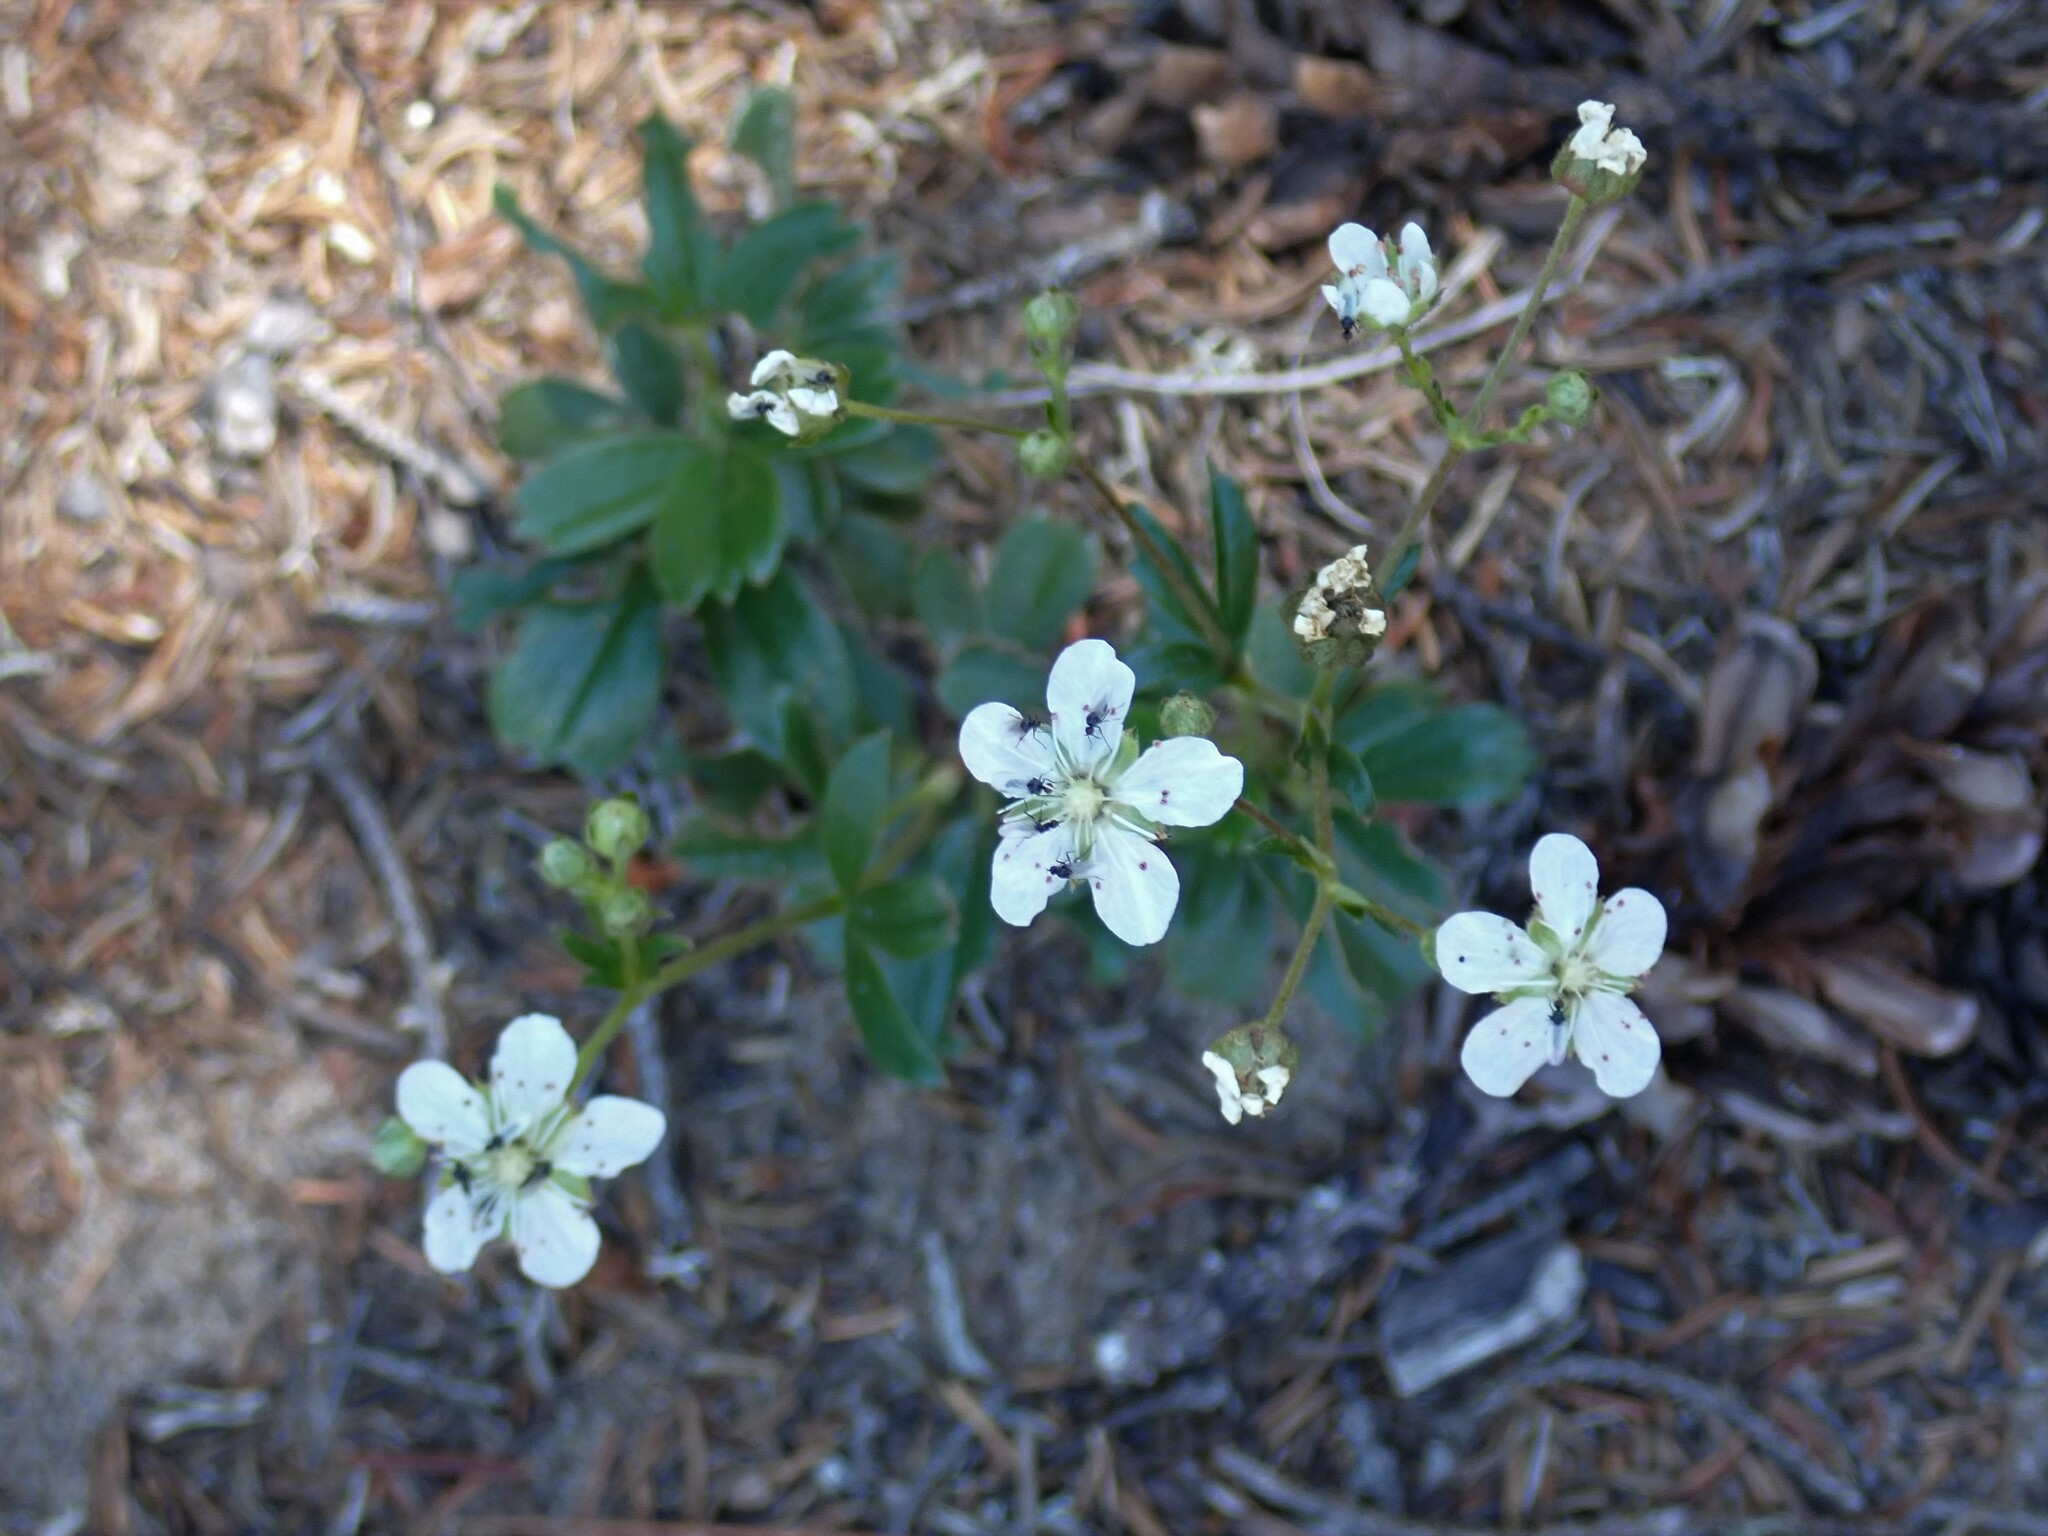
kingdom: Plantae
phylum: Tracheophyta
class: Magnoliopsida
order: Rosales
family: Rosaceae
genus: Sibbaldia
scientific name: Sibbaldia tridentata
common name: Three-toothed cinquefoil
